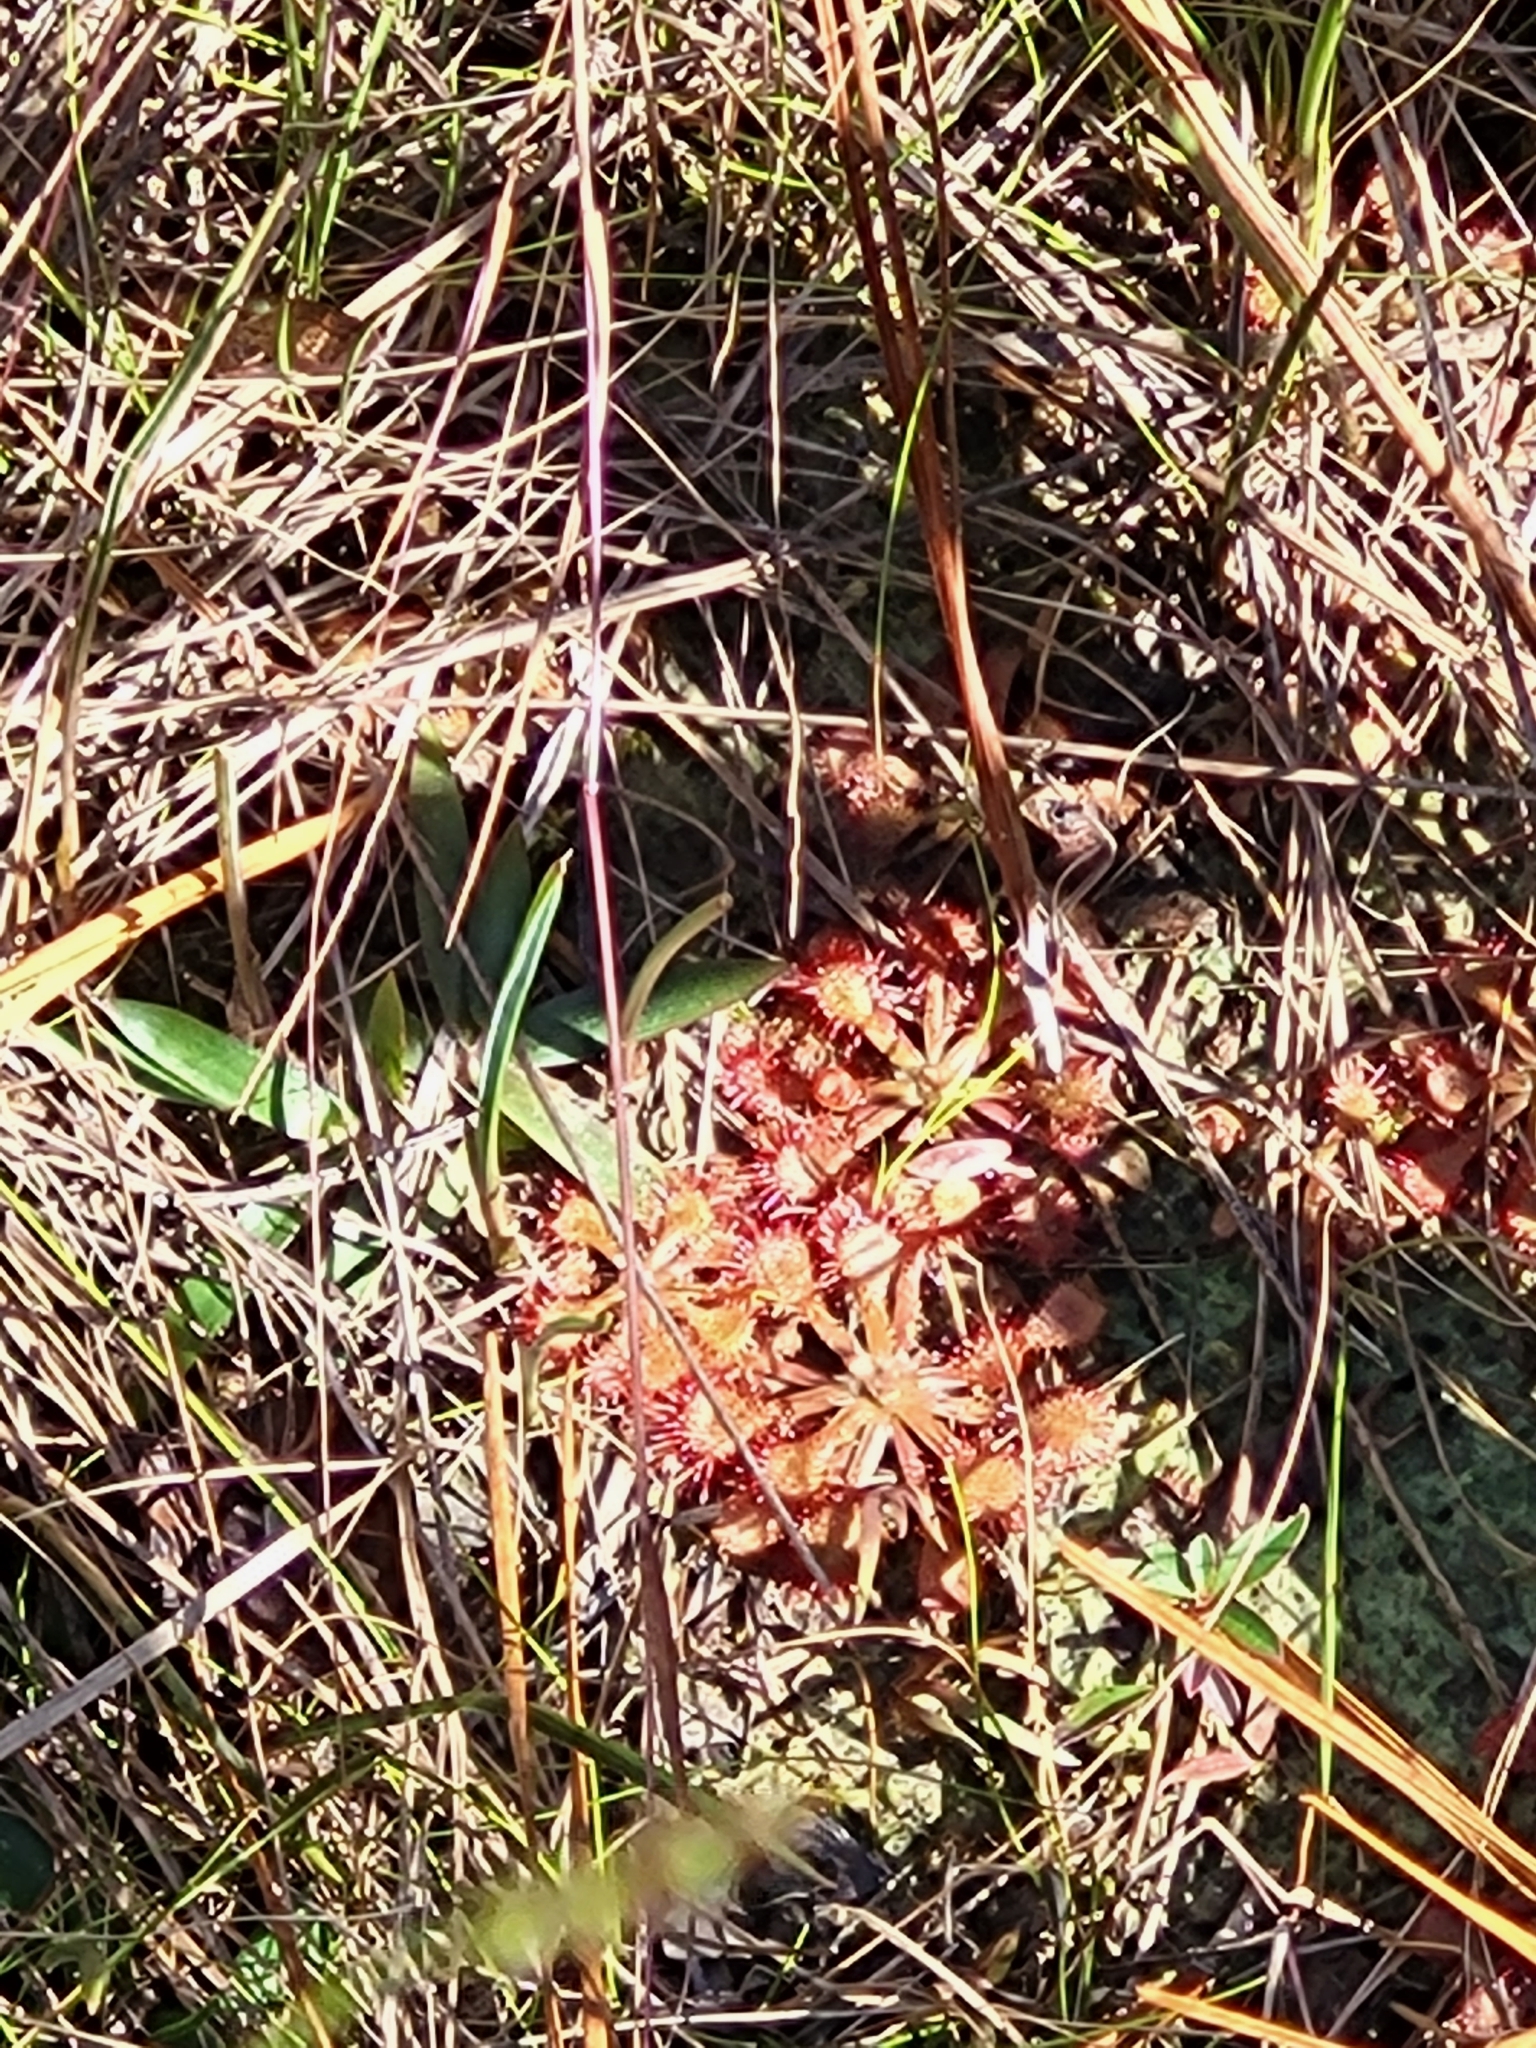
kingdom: Plantae
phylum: Tracheophyta
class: Magnoliopsida
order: Caryophyllales
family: Droseraceae
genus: Drosera
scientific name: Drosera capillaris
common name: Pink sundew
